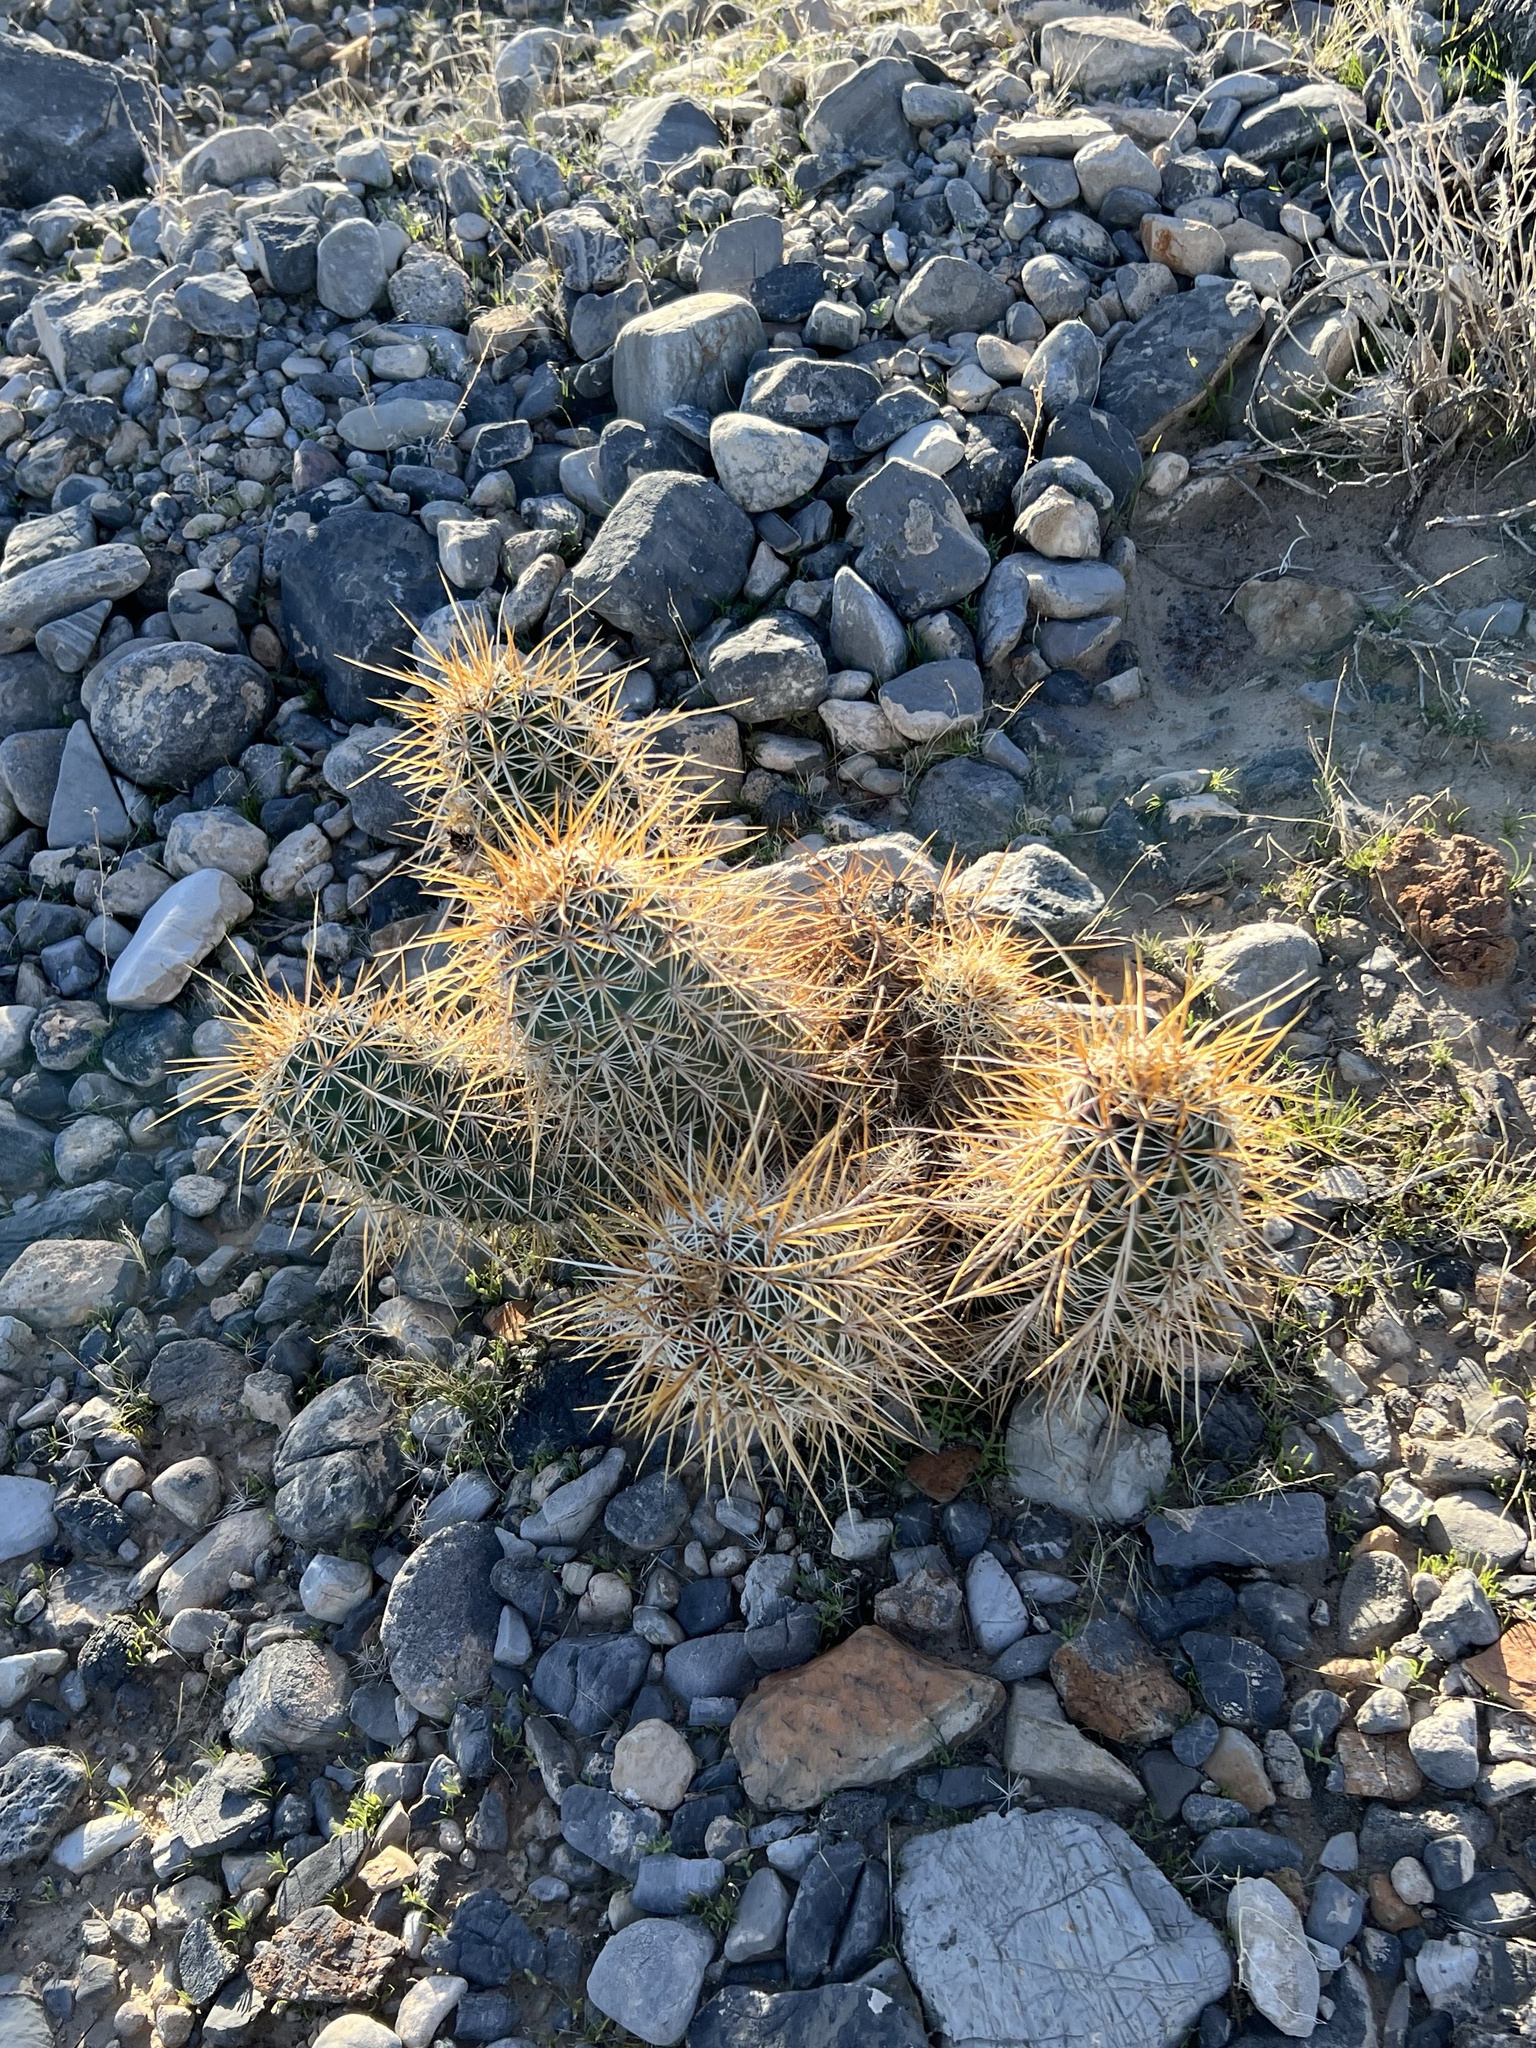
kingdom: Plantae
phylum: Tracheophyta
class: Magnoliopsida
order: Caryophyllales
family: Cactaceae
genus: Echinocereus
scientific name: Echinocereus engelmannii
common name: Engelmann's hedgehog cactus
